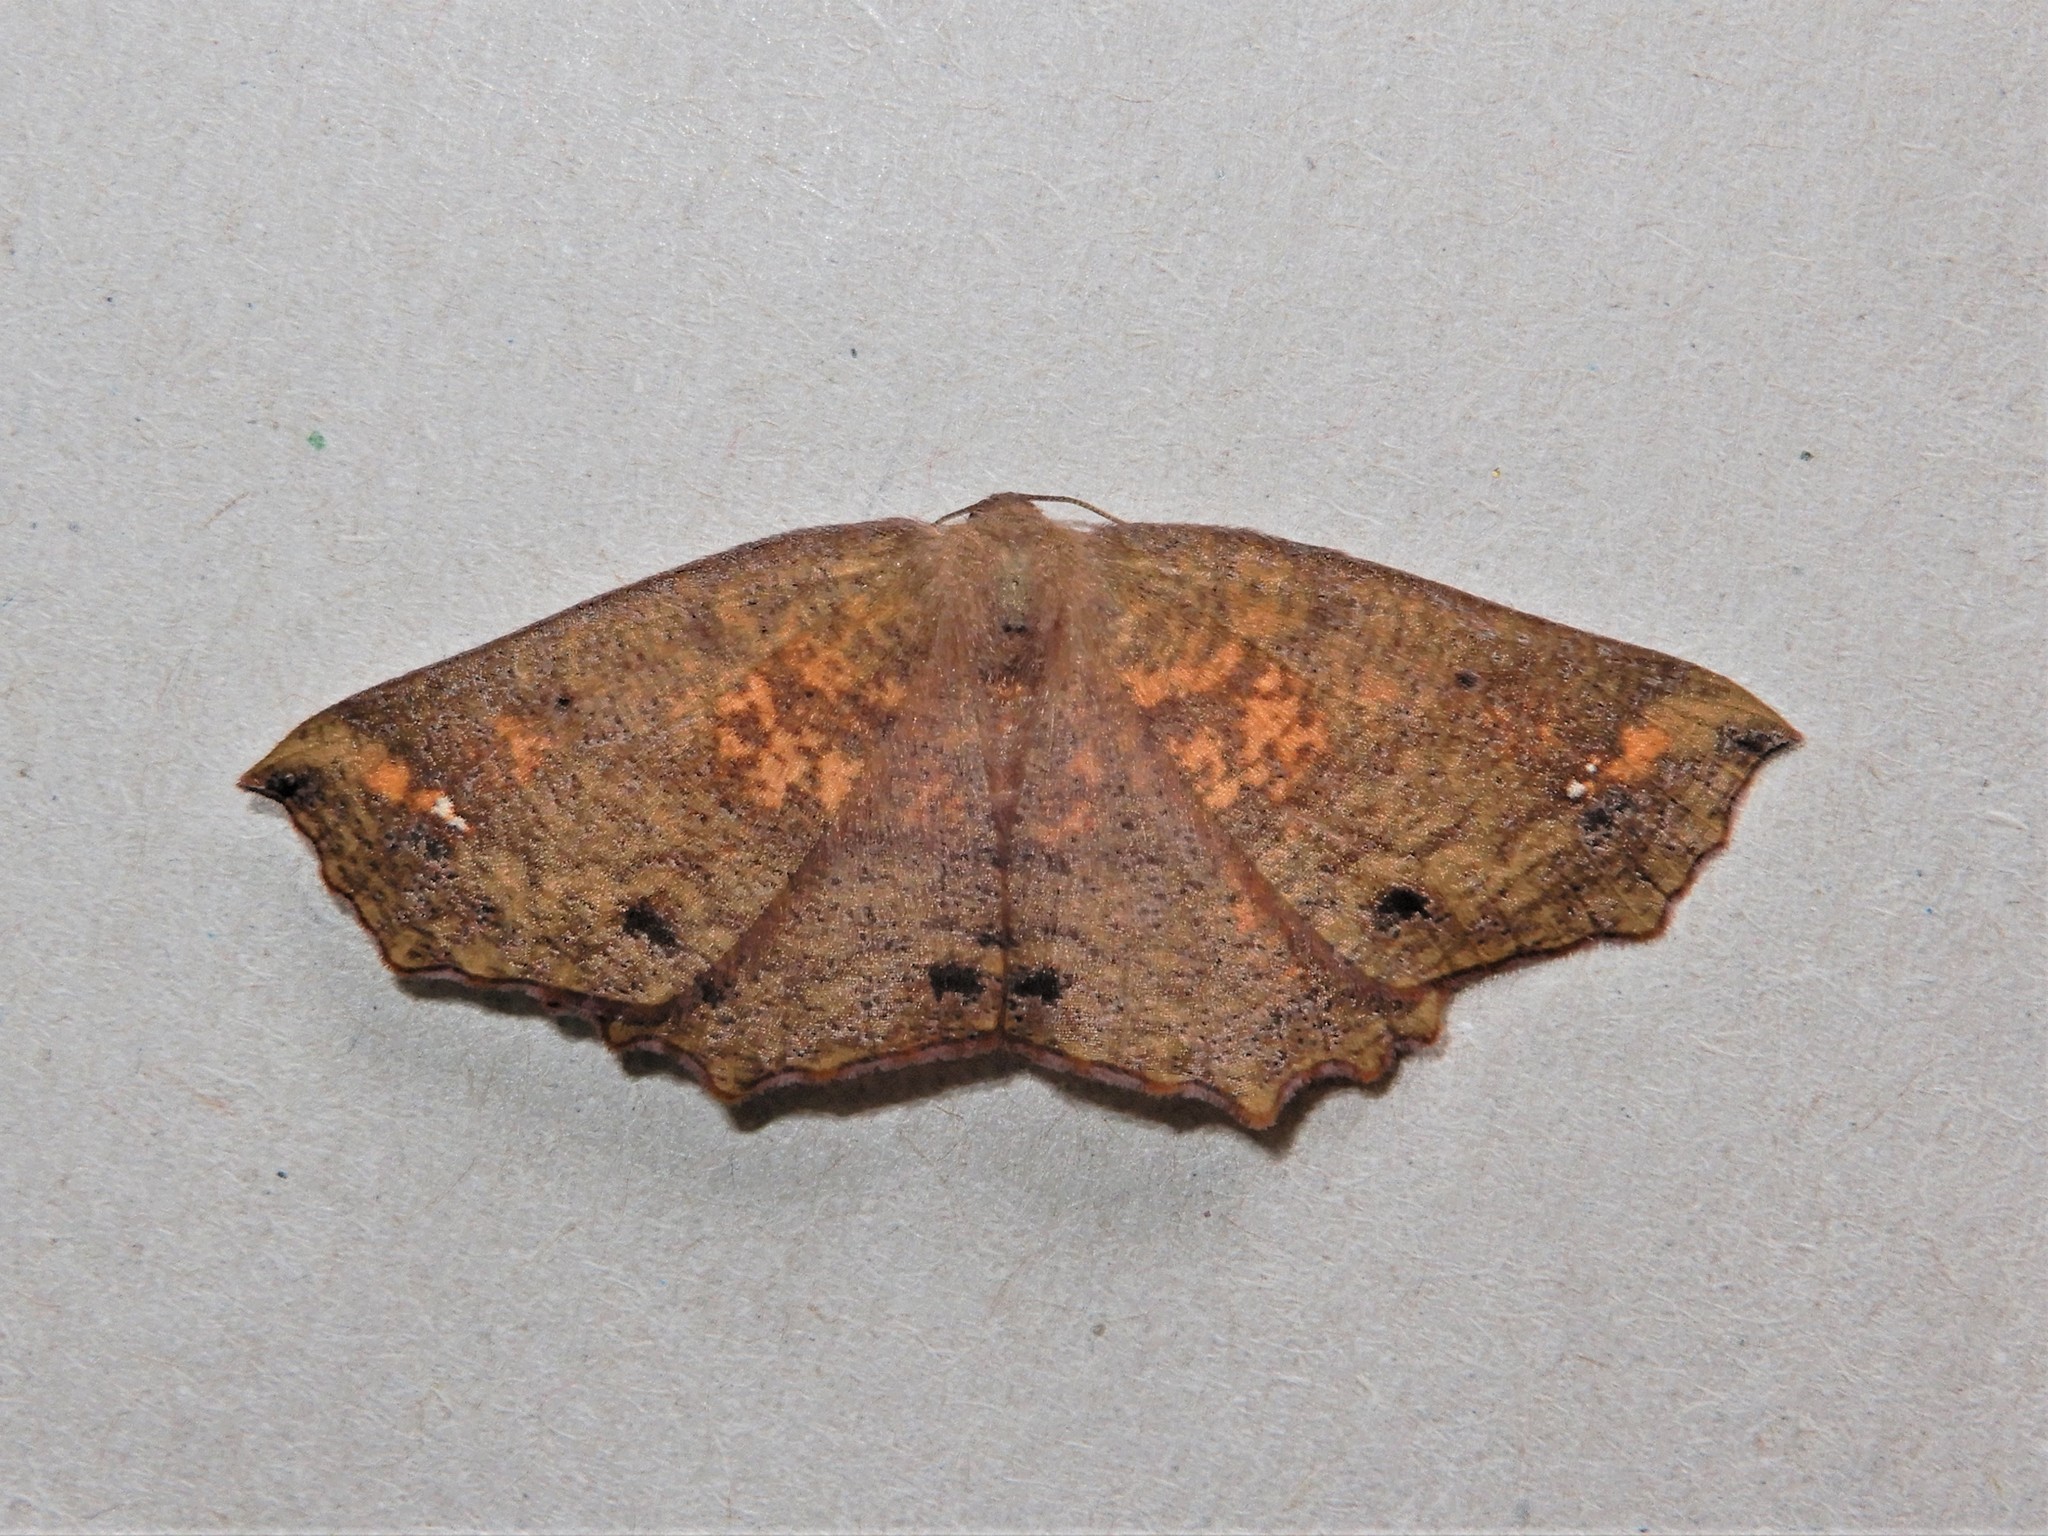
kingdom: Animalia
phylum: Arthropoda
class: Insecta
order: Lepidoptera
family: Geometridae
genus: Xyridacma
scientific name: Xyridacma ustaria
